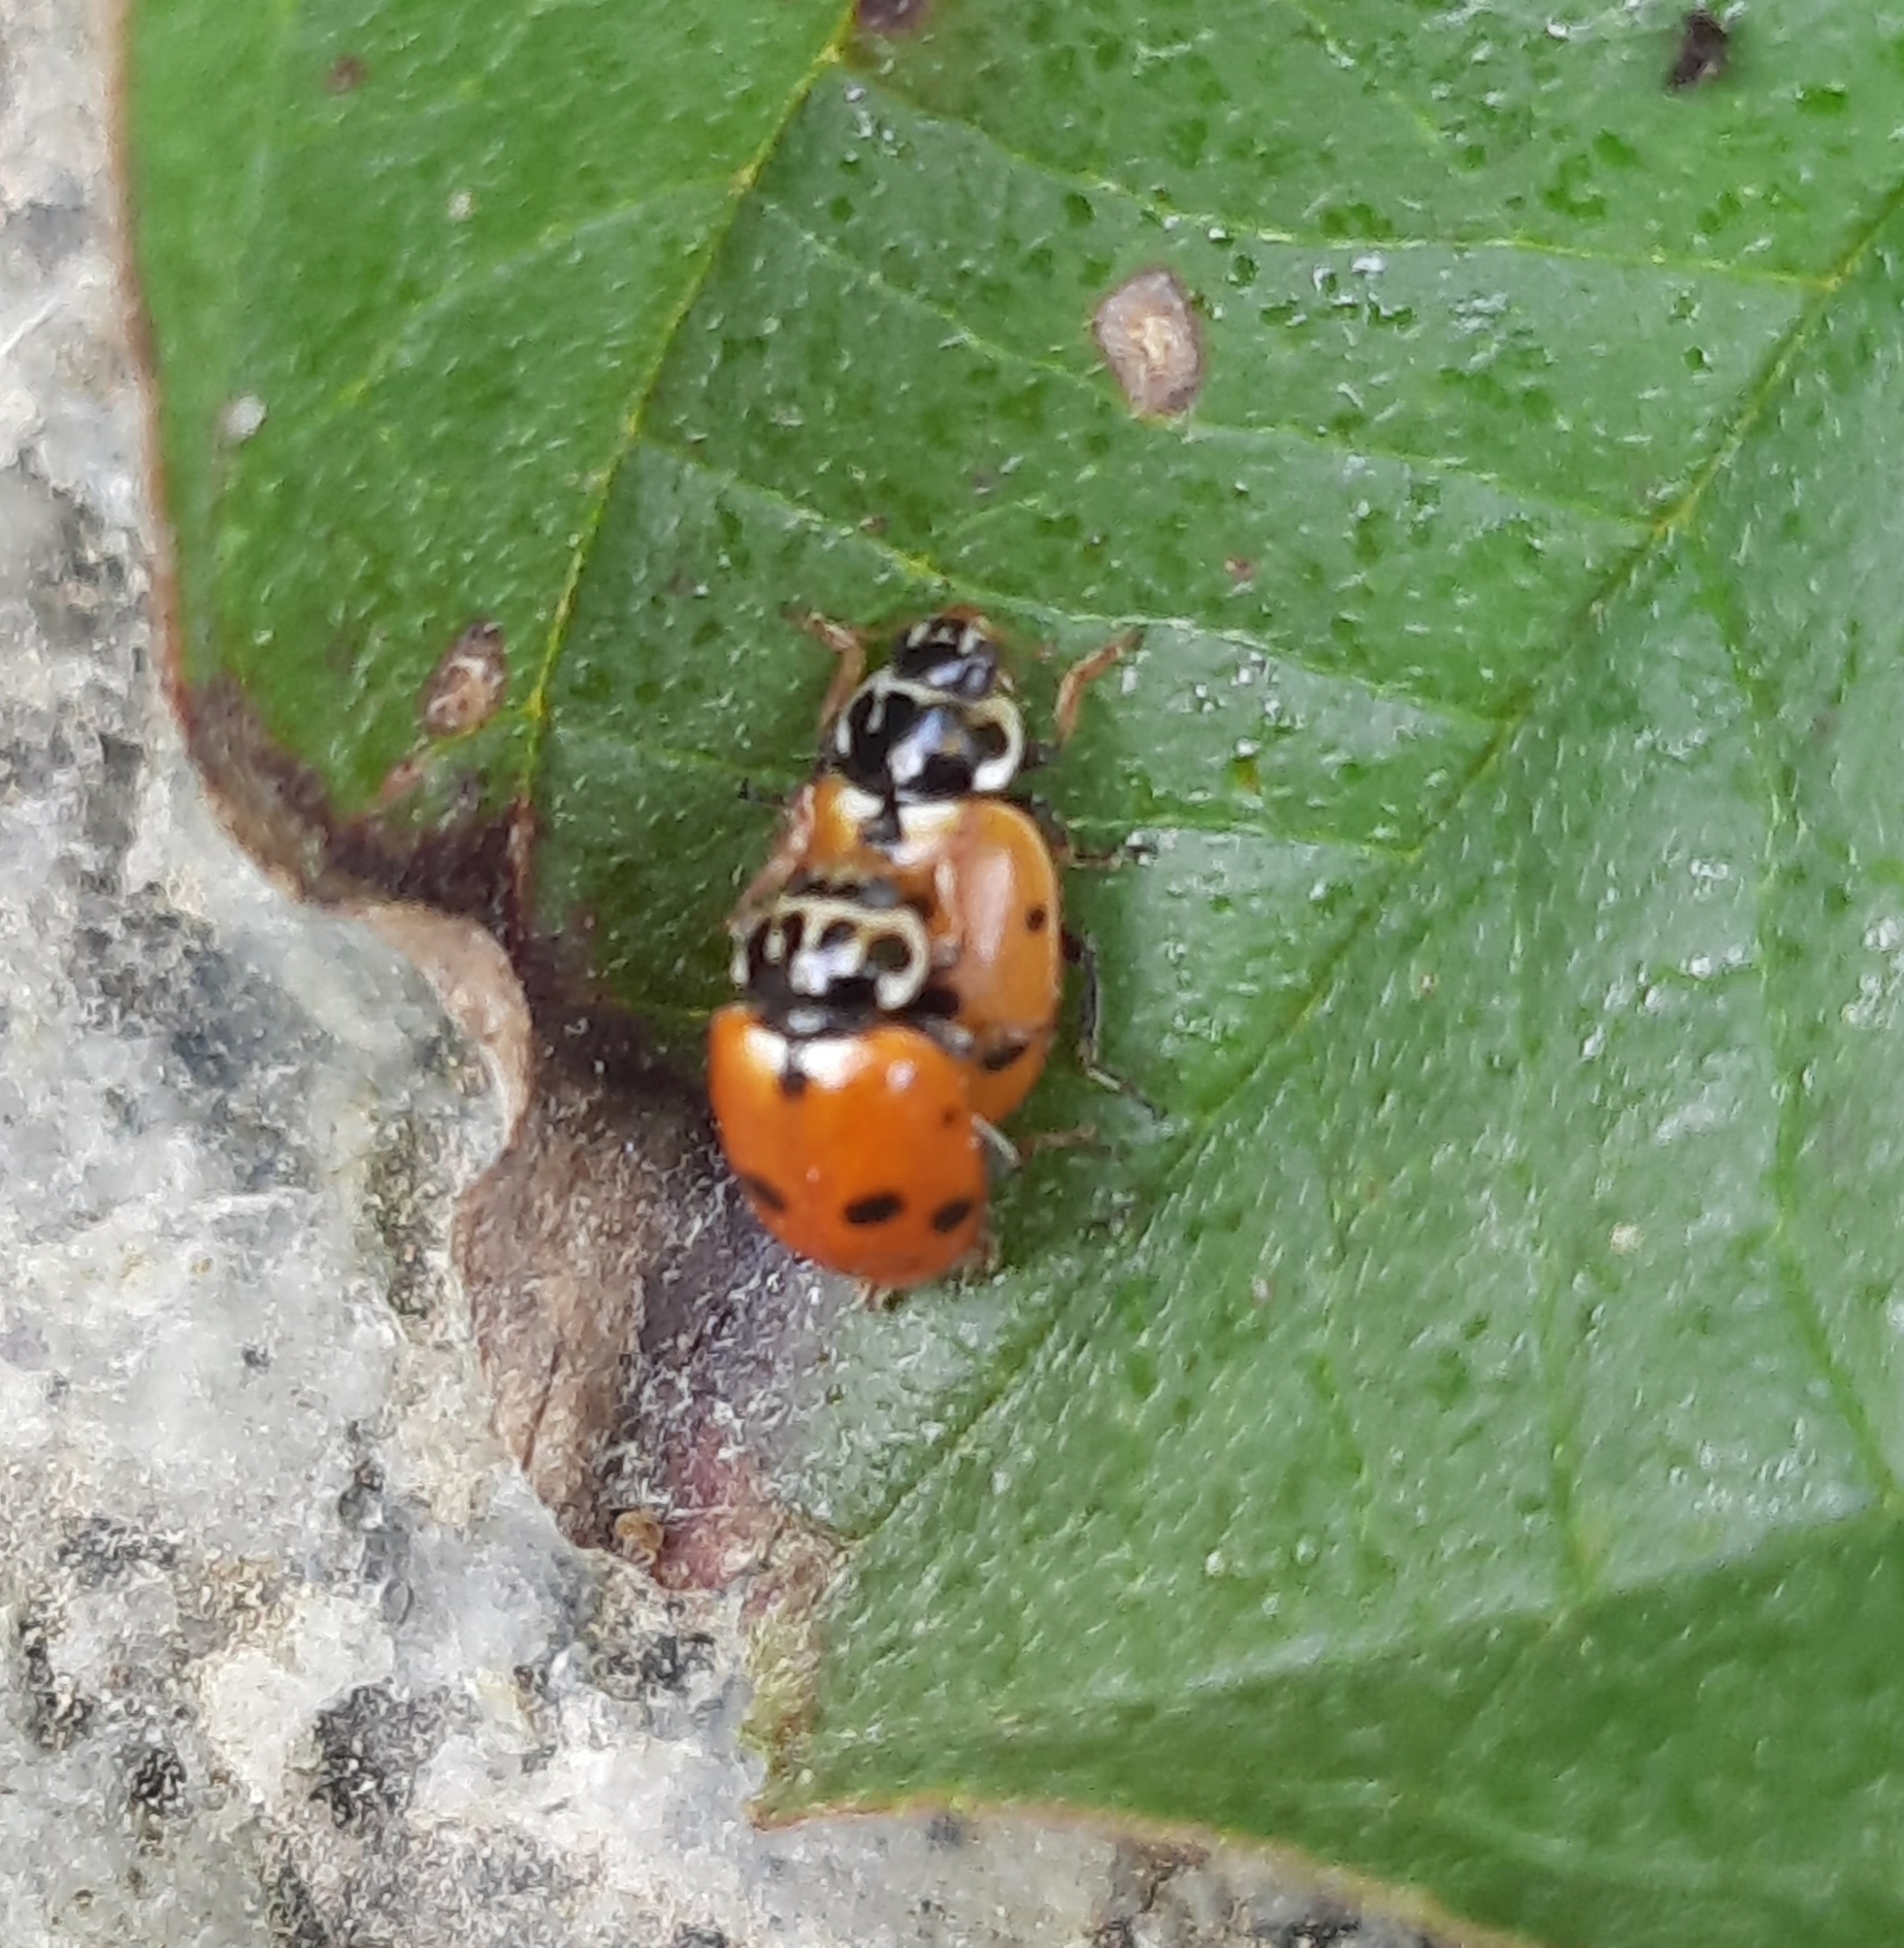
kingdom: Animalia
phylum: Arthropoda
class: Insecta
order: Coleoptera
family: Coccinellidae
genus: Hippodamia
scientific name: Hippodamia variegata
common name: Ladybird beetle
